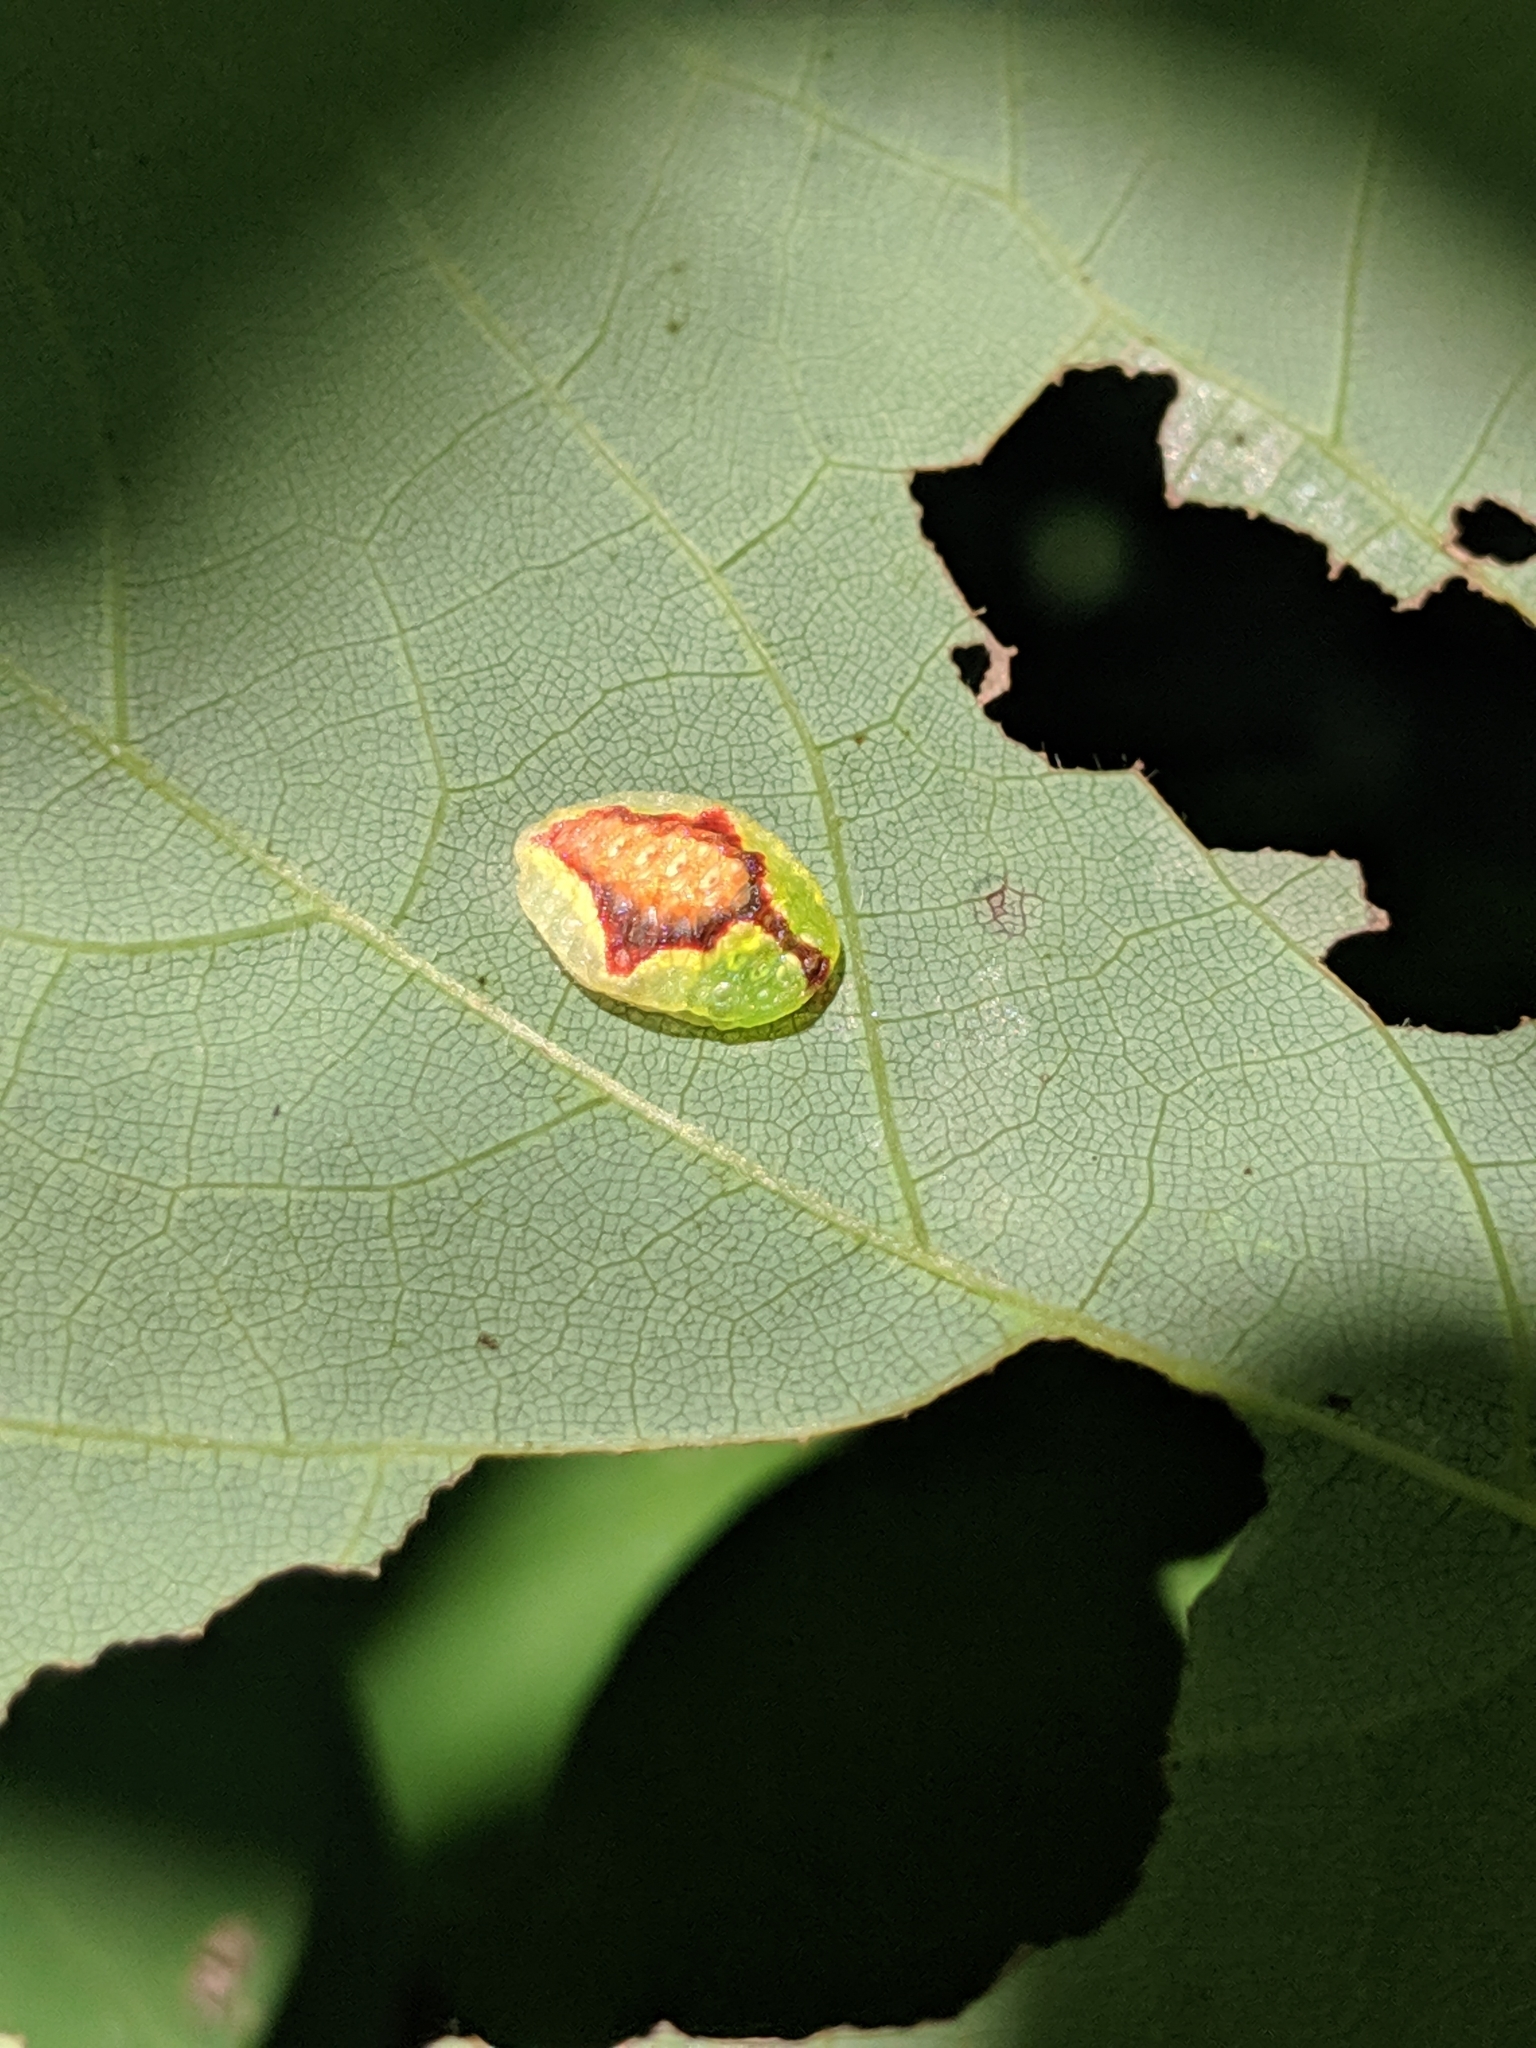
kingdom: Animalia
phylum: Arthropoda
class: Insecta
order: Lepidoptera
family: Limacodidae
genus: Tortricidia
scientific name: Tortricidia testacea
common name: Early button slug moth
